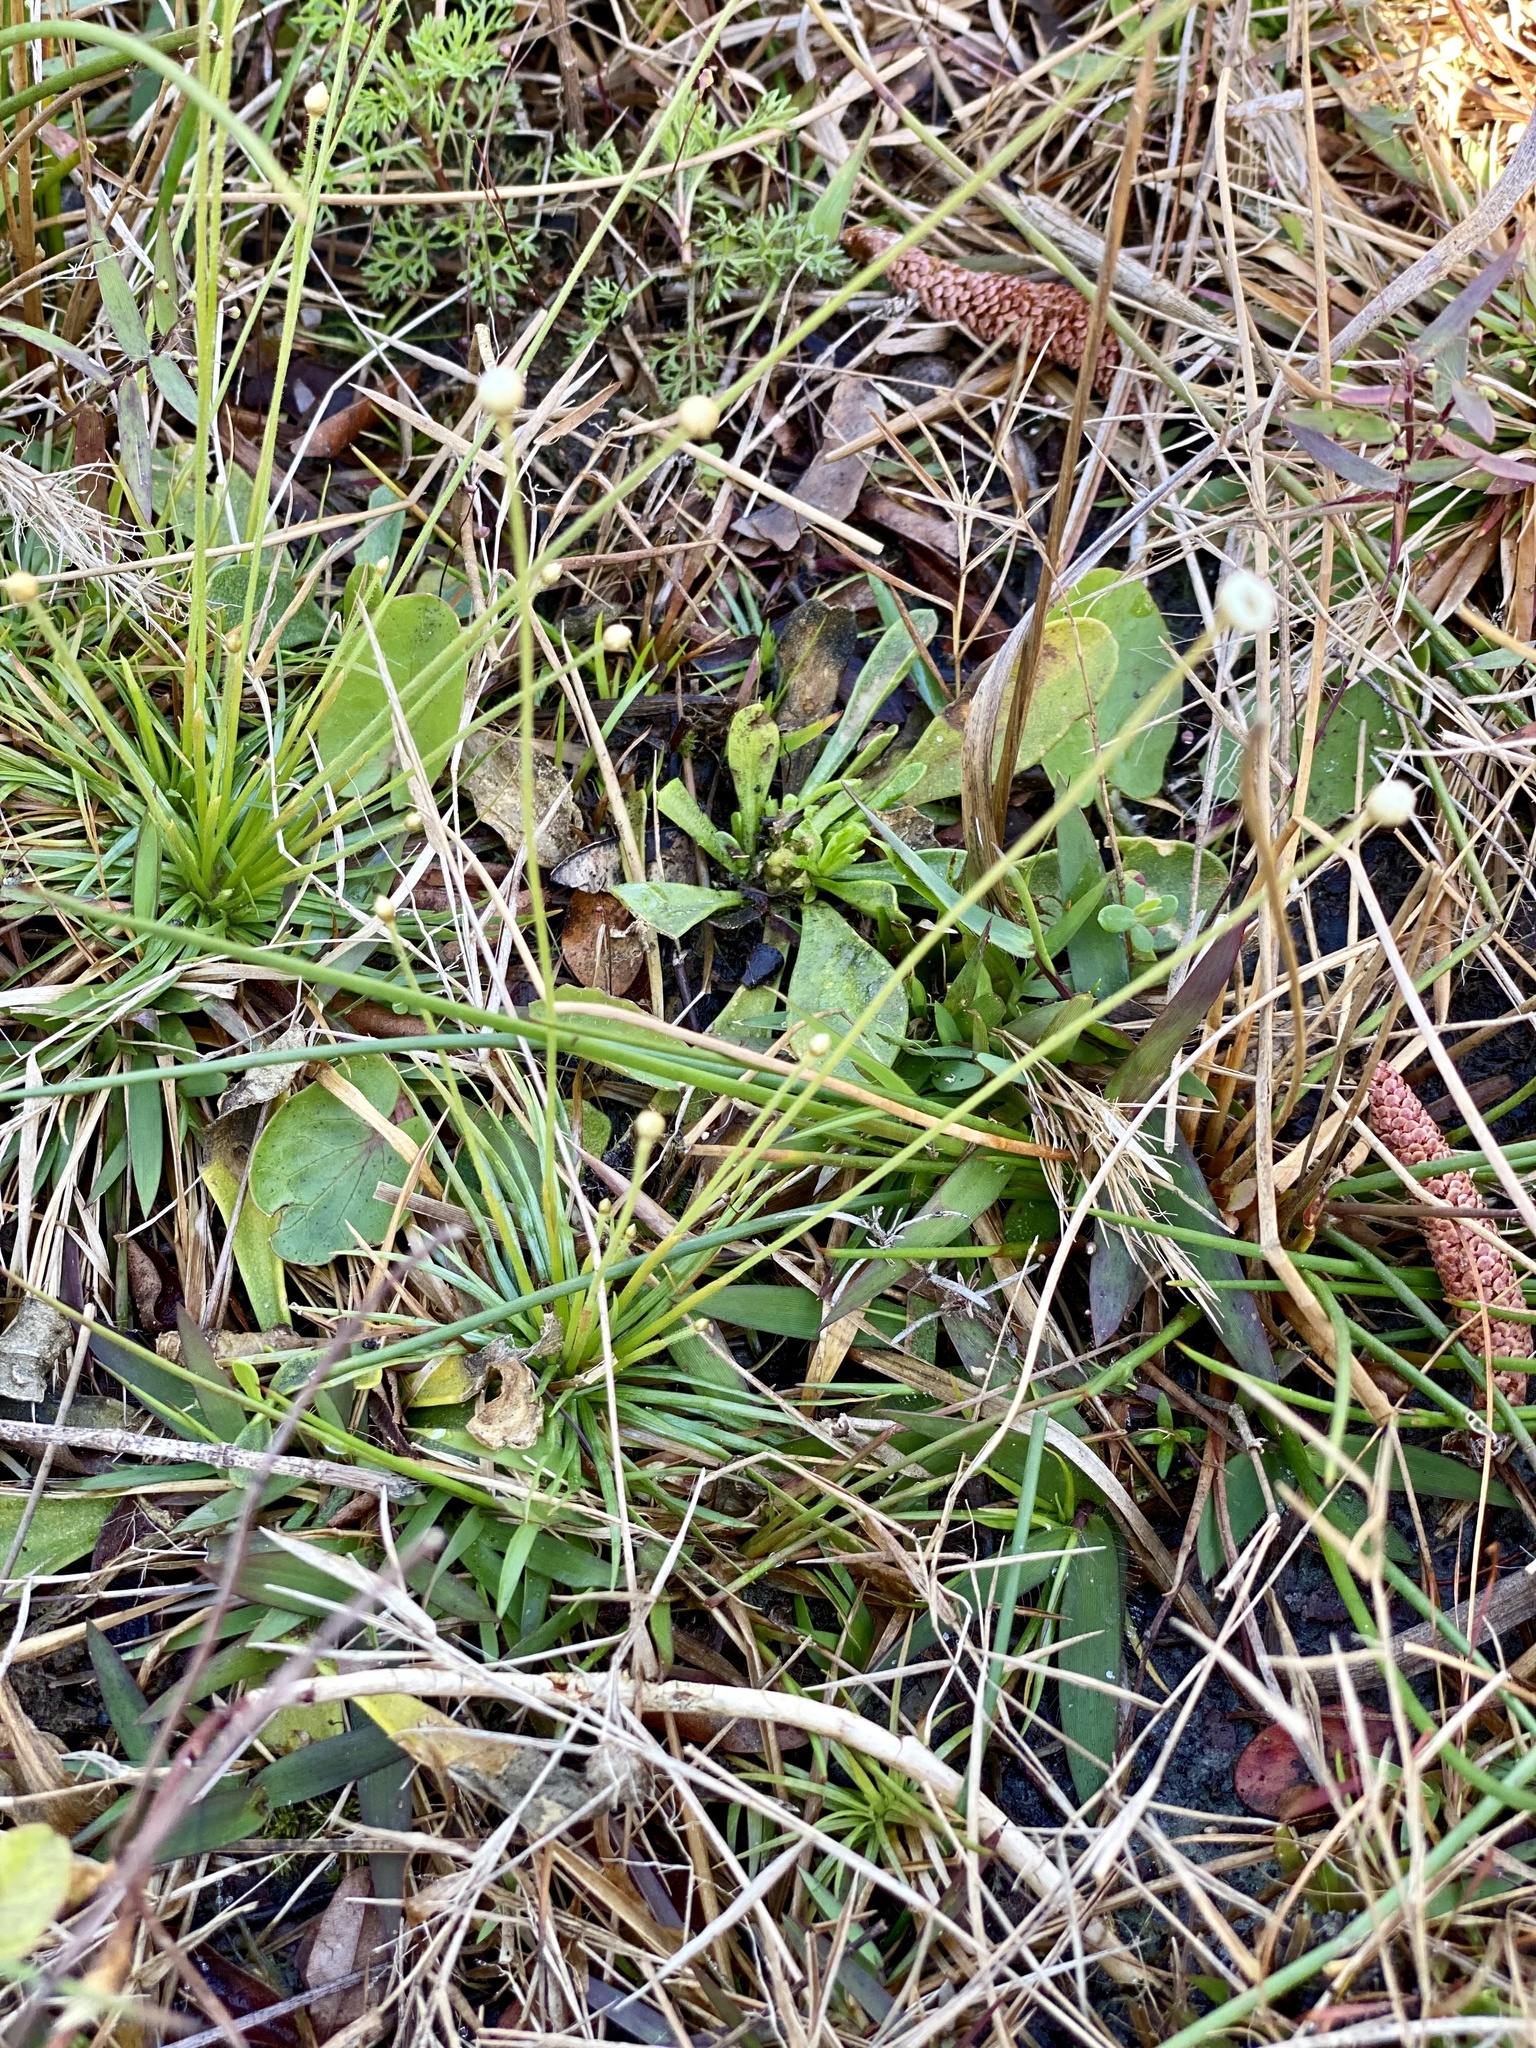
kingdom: Plantae
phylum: Tracheophyta
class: Liliopsida
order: Poales
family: Eriocaulaceae
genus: Syngonanthus
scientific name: Syngonanthus flavidulus
